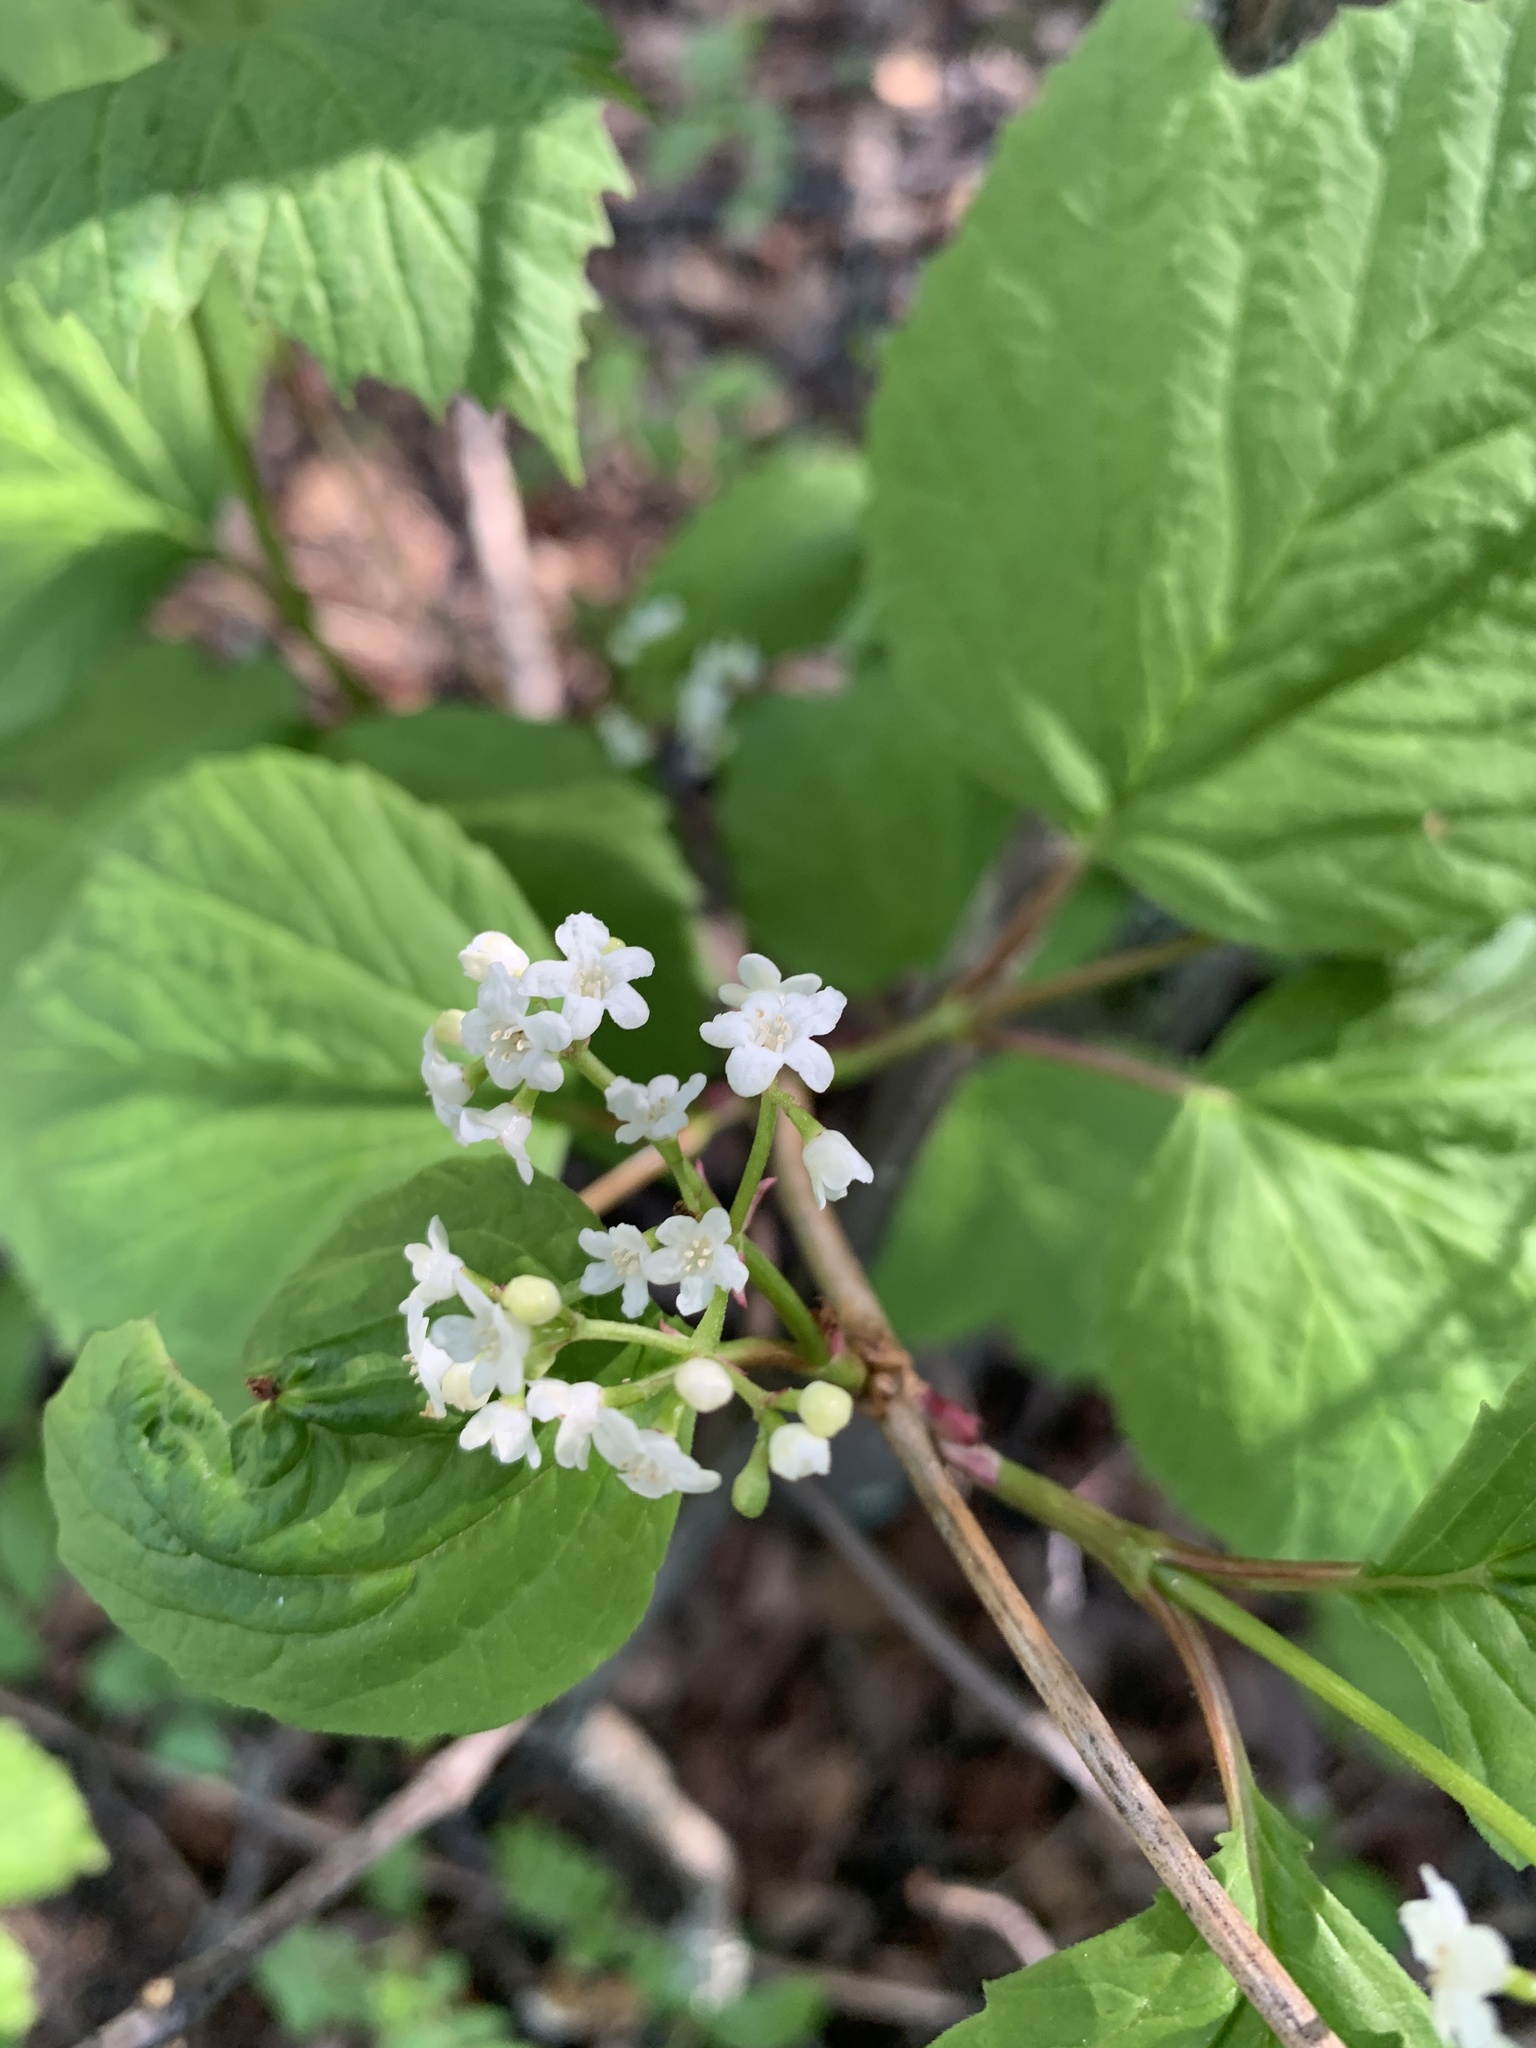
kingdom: Plantae
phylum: Tracheophyta
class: Magnoliopsida
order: Dipsacales
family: Viburnaceae
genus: Viburnum
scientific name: Viburnum edule
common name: Mooseberry
